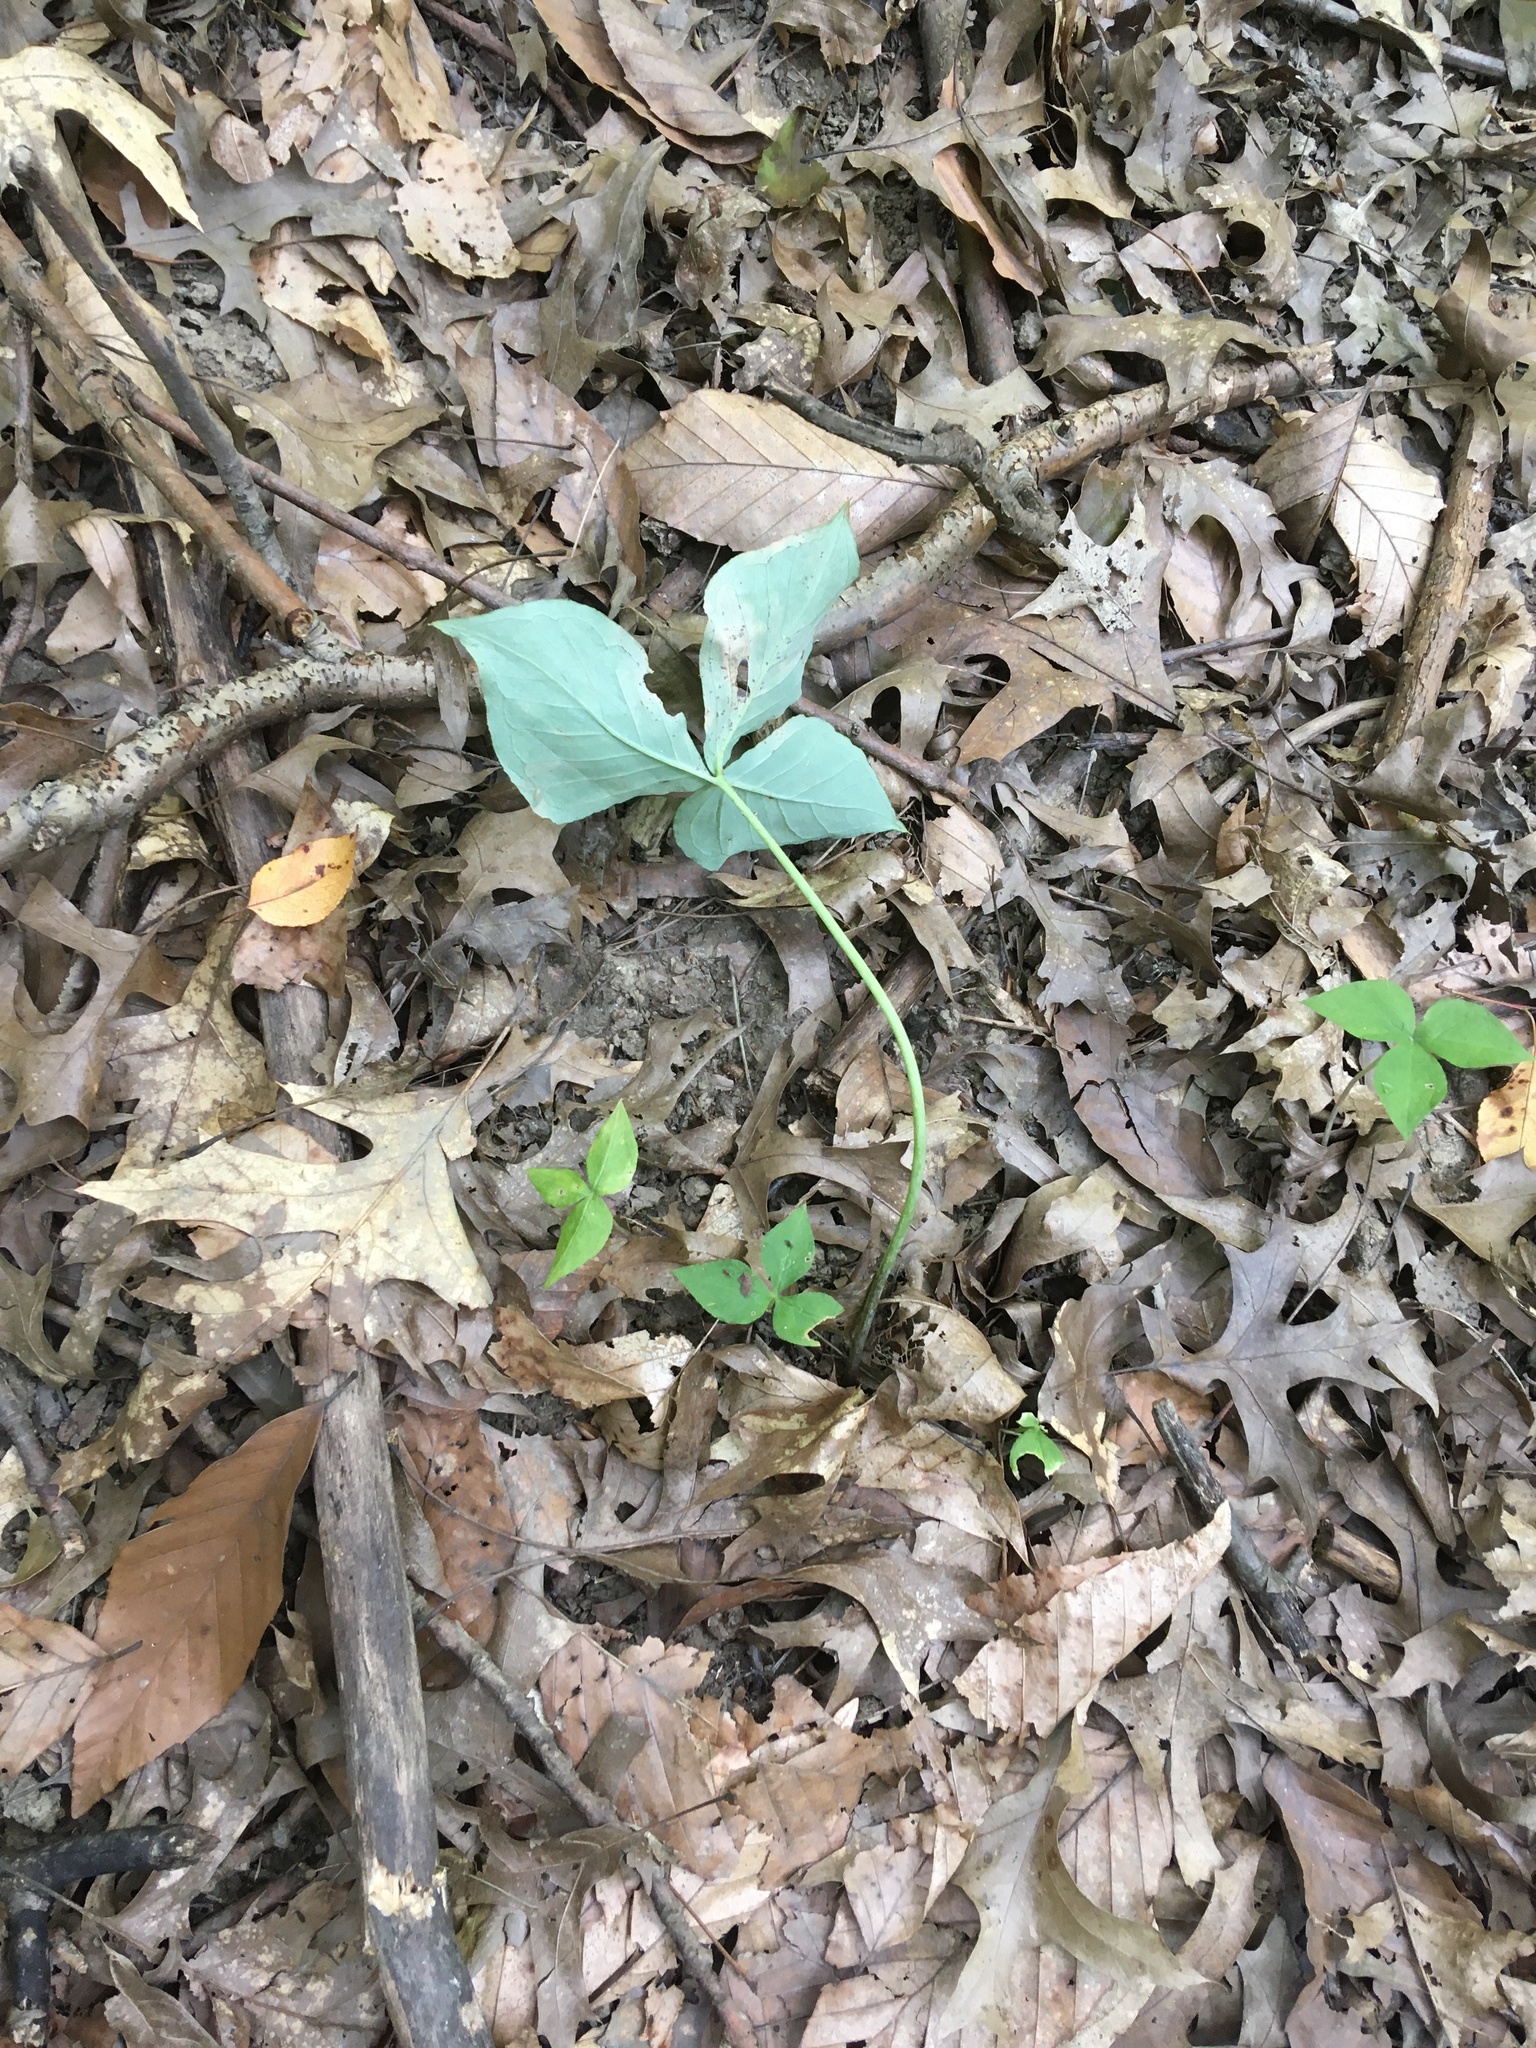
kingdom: Plantae
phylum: Tracheophyta
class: Liliopsida
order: Alismatales
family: Araceae
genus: Arisaema
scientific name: Arisaema triphyllum
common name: Jack-in-the-pulpit
